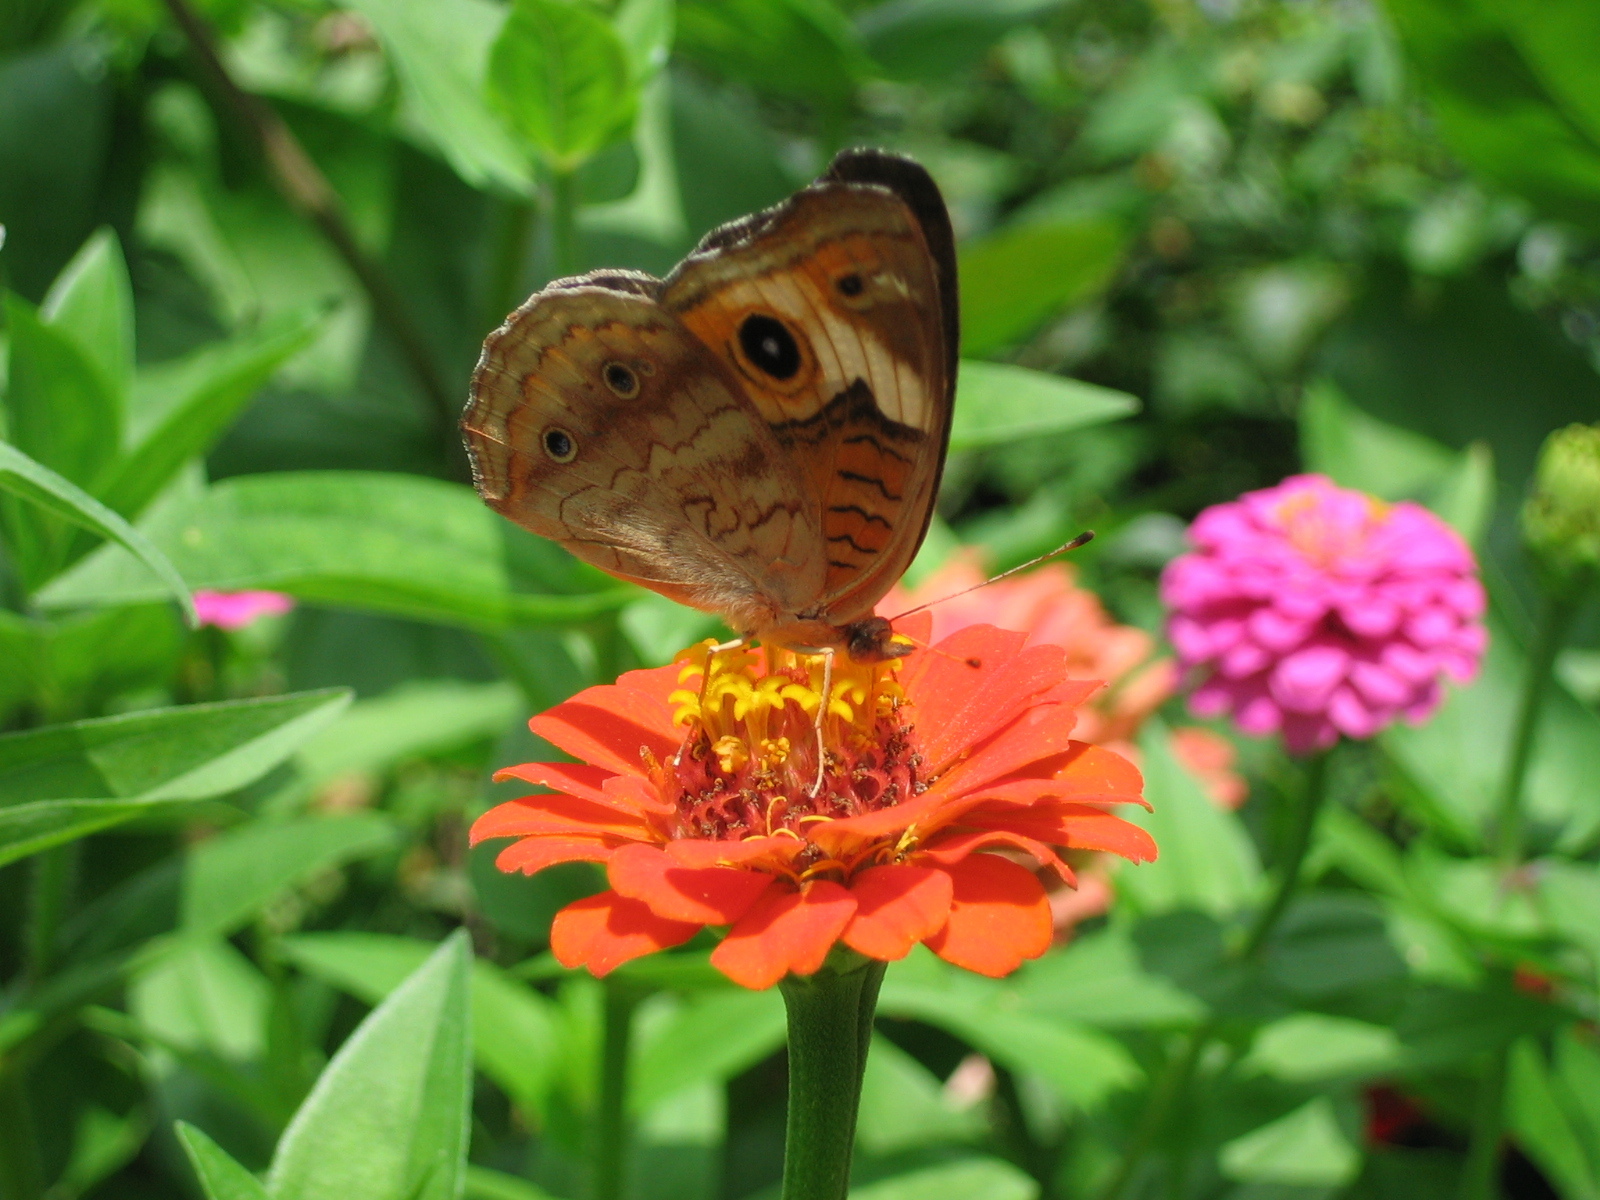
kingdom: Animalia
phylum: Arthropoda
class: Insecta
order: Lepidoptera
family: Nymphalidae
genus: Junonia
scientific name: Junonia coenia
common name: Common buckeye
